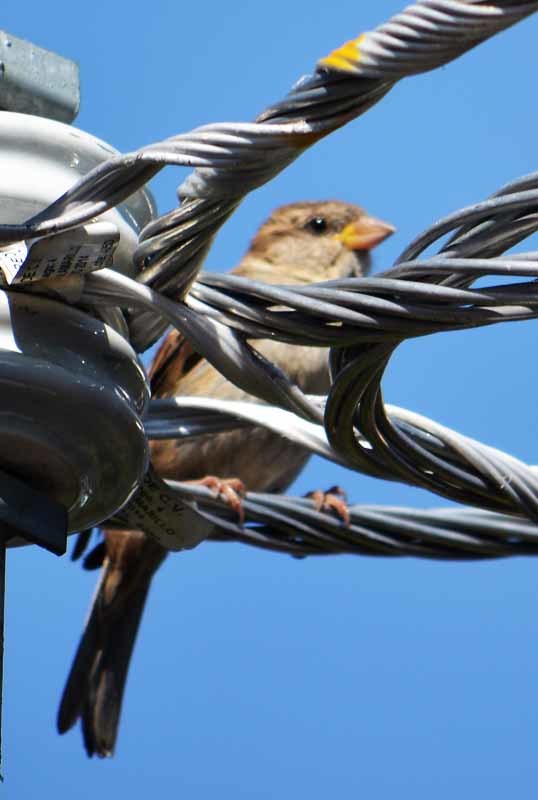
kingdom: Animalia
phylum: Chordata
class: Aves
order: Passeriformes
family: Passeridae
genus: Passer
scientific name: Passer domesticus
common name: House sparrow
